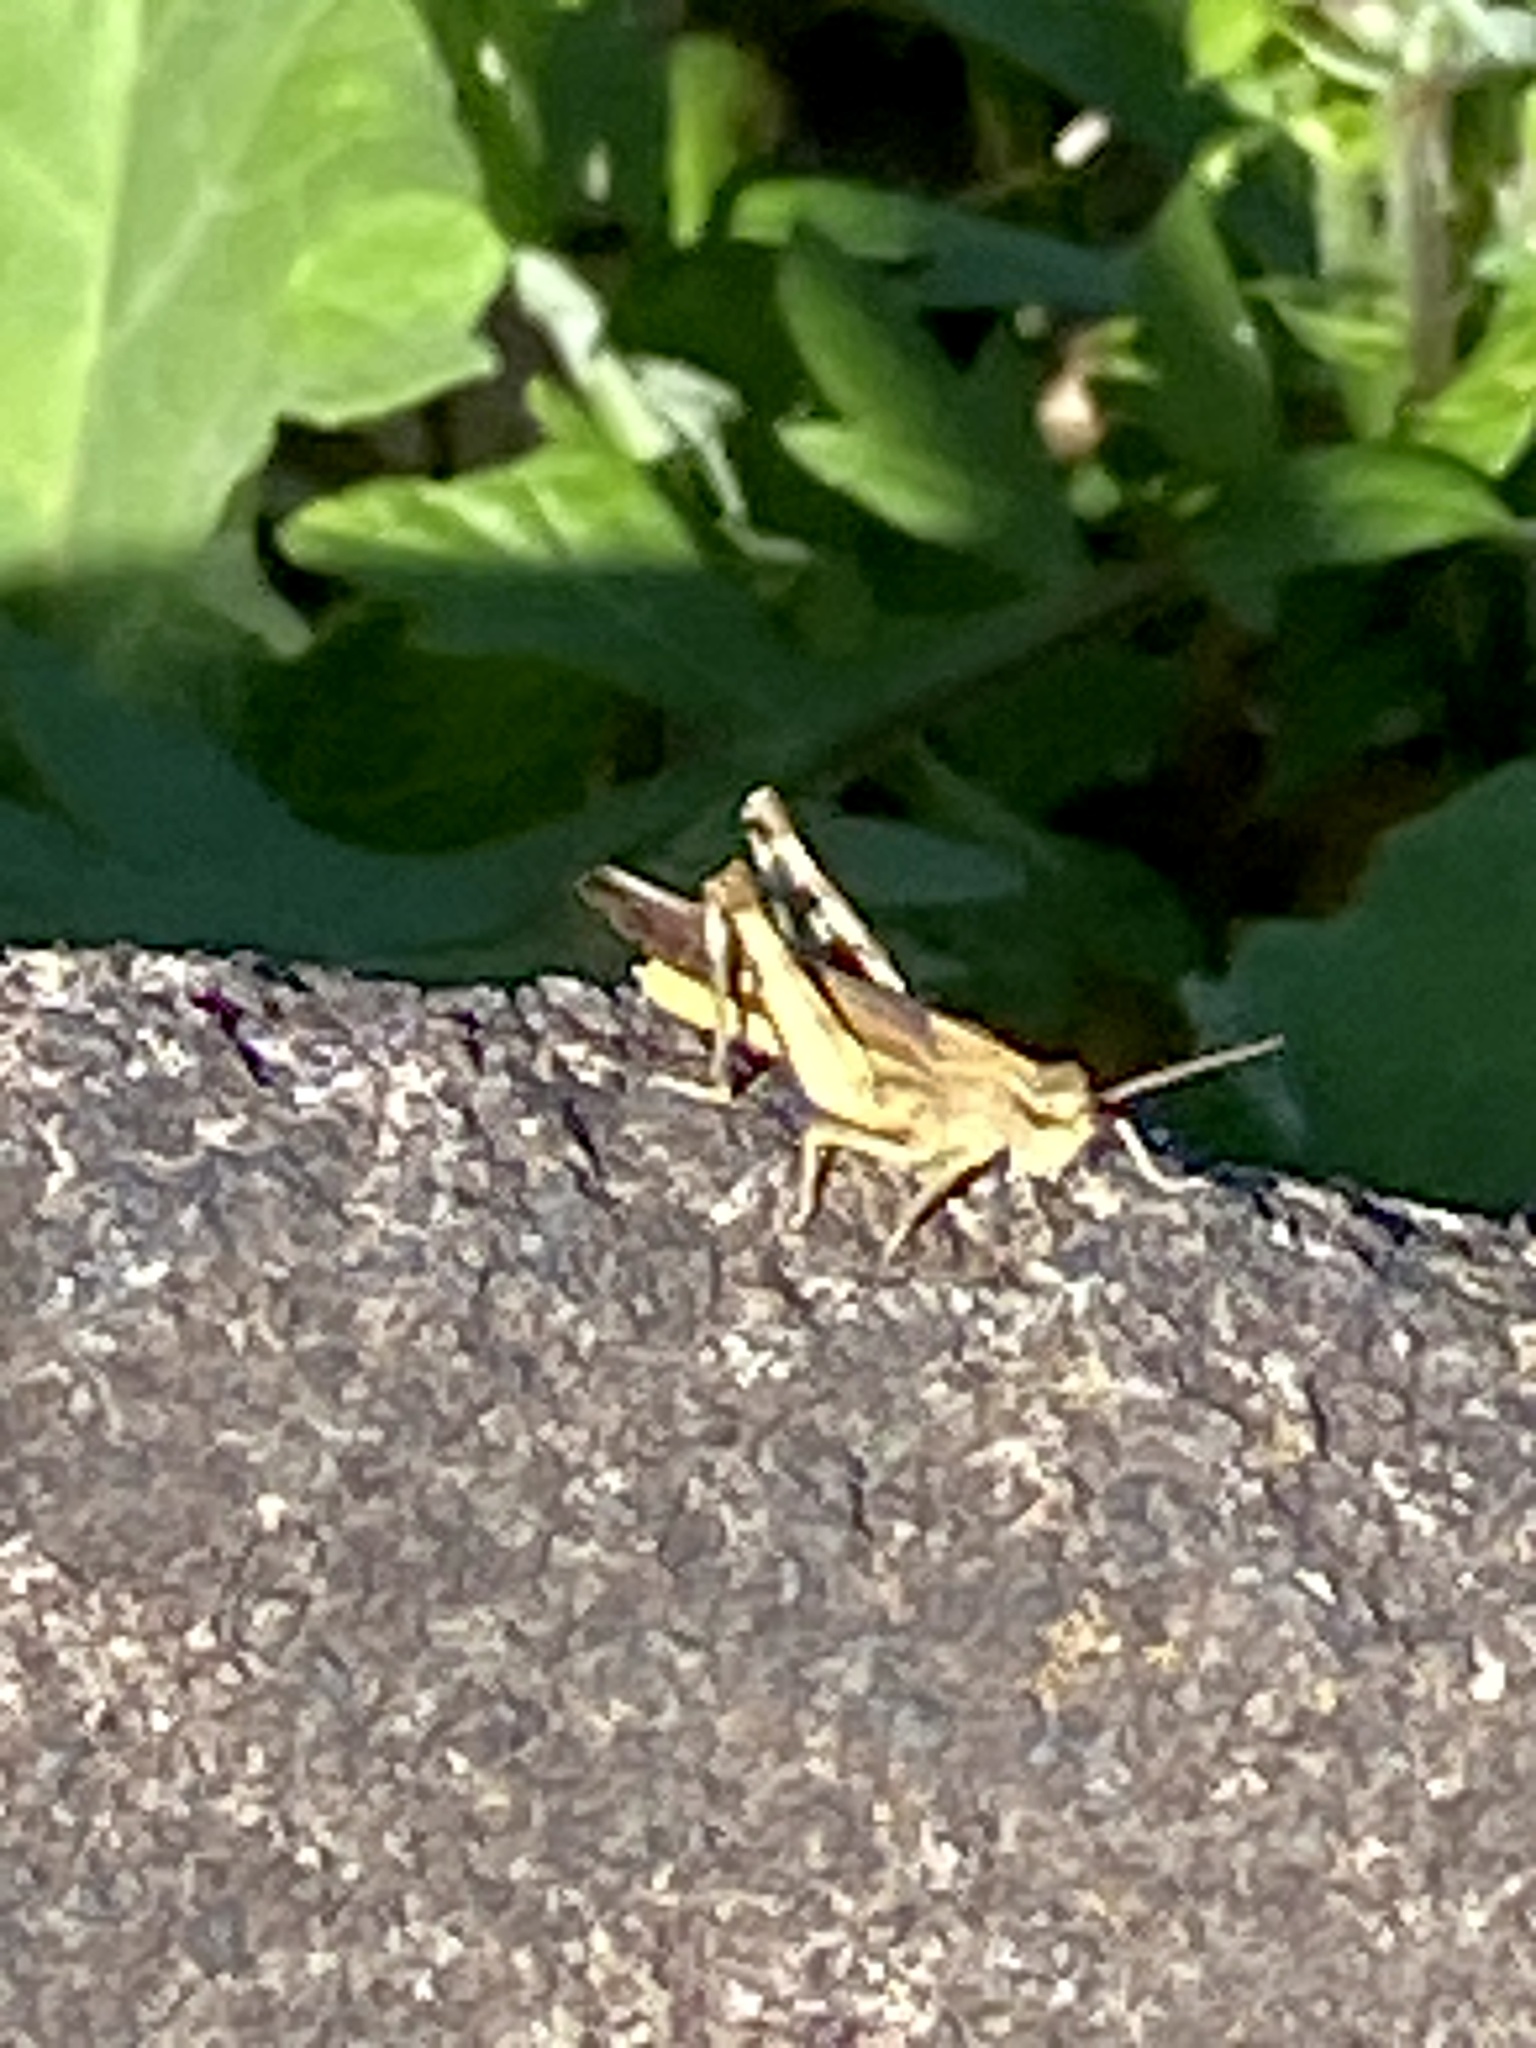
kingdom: Animalia
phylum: Arthropoda
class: Insecta
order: Orthoptera
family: Acrididae
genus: Chortophaga
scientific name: Chortophaga viridifasciata
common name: Green-striped grasshopper
